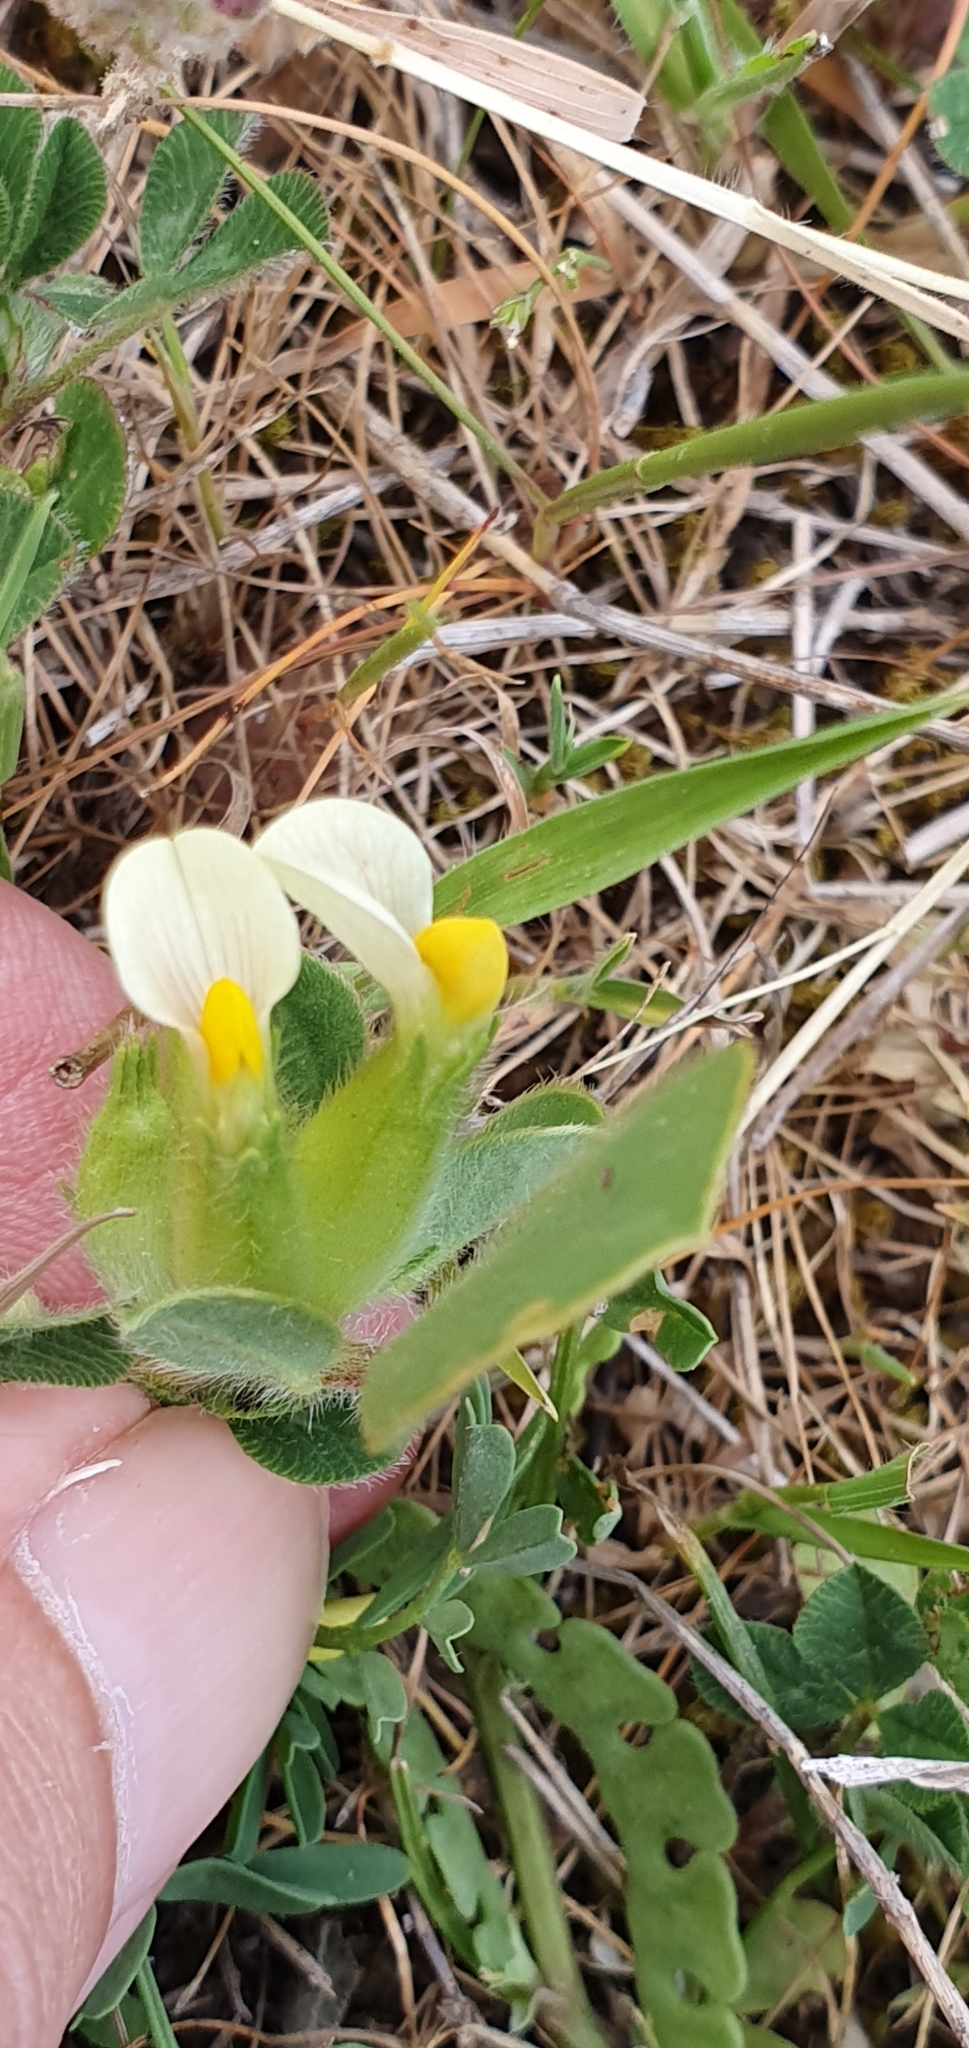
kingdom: Plantae
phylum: Tracheophyta
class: Magnoliopsida
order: Fabales
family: Fabaceae
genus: Tripodion
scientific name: Tripodion tetraphyllum
